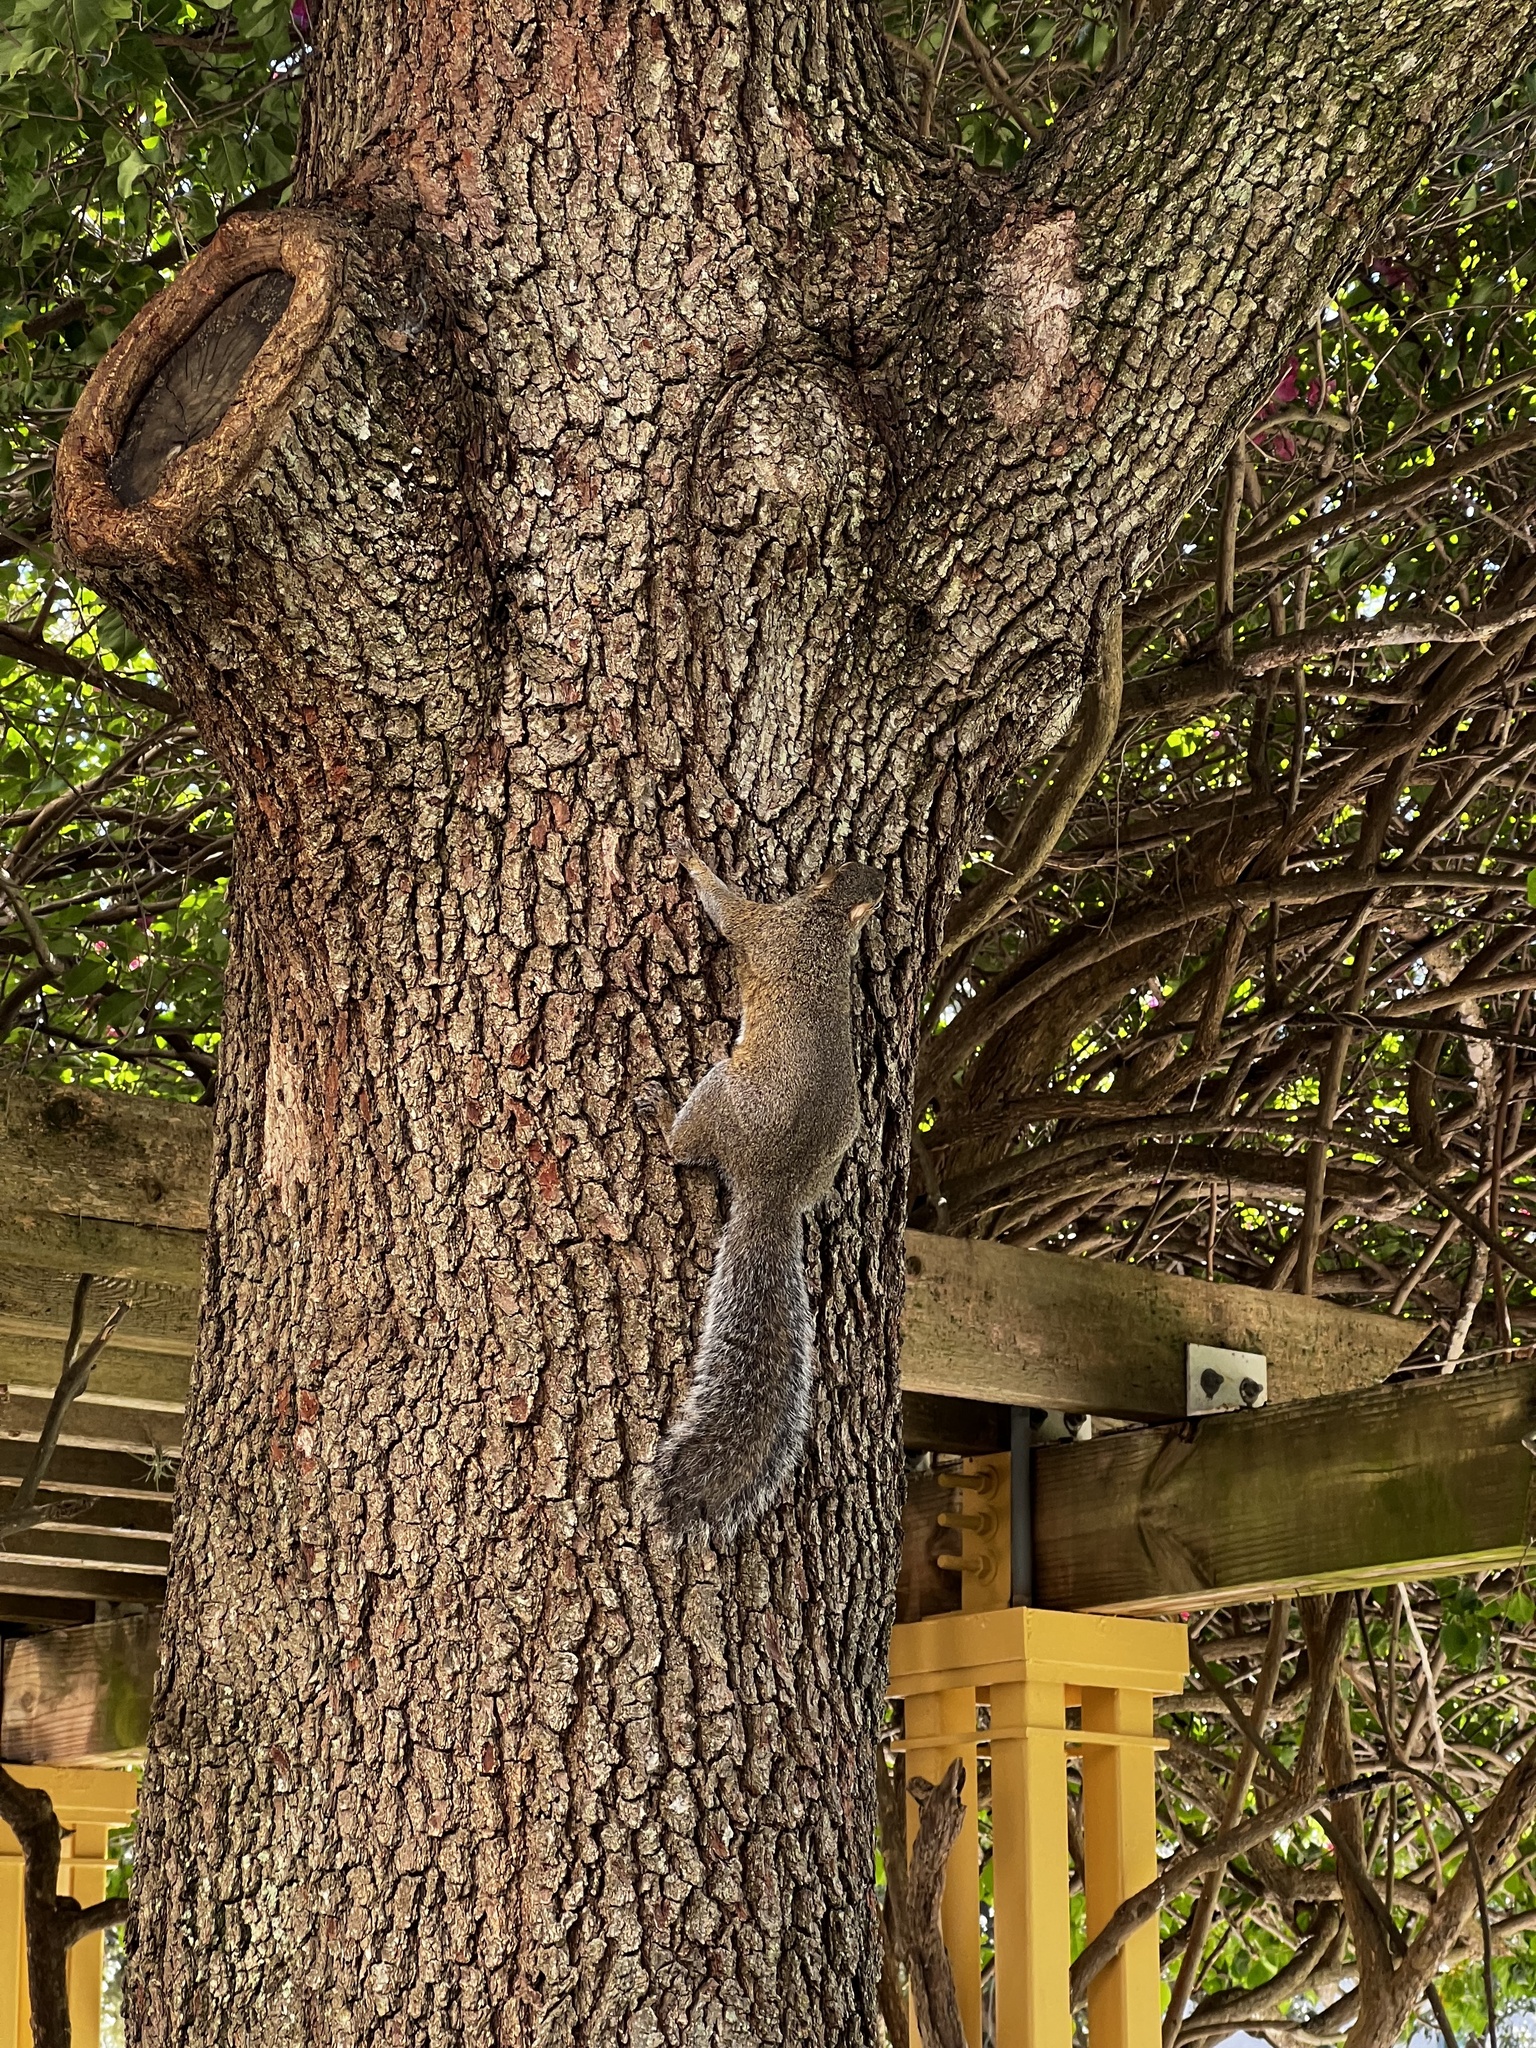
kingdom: Animalia
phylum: Chordata
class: Mammalia
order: Rodentia
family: Sciuridae
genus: Sciurus
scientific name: Sciurus carolinensis
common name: Eastern gray squirrel
